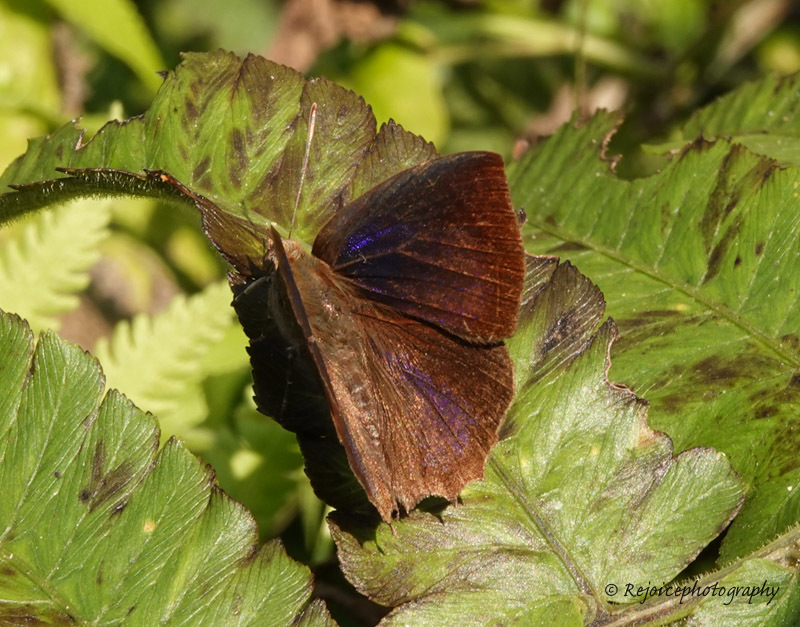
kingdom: Animalia
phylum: Arthropoda
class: Insecta
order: Lepidoptera
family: Lycaenidae
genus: Surendra
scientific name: Surendra quercetorum
